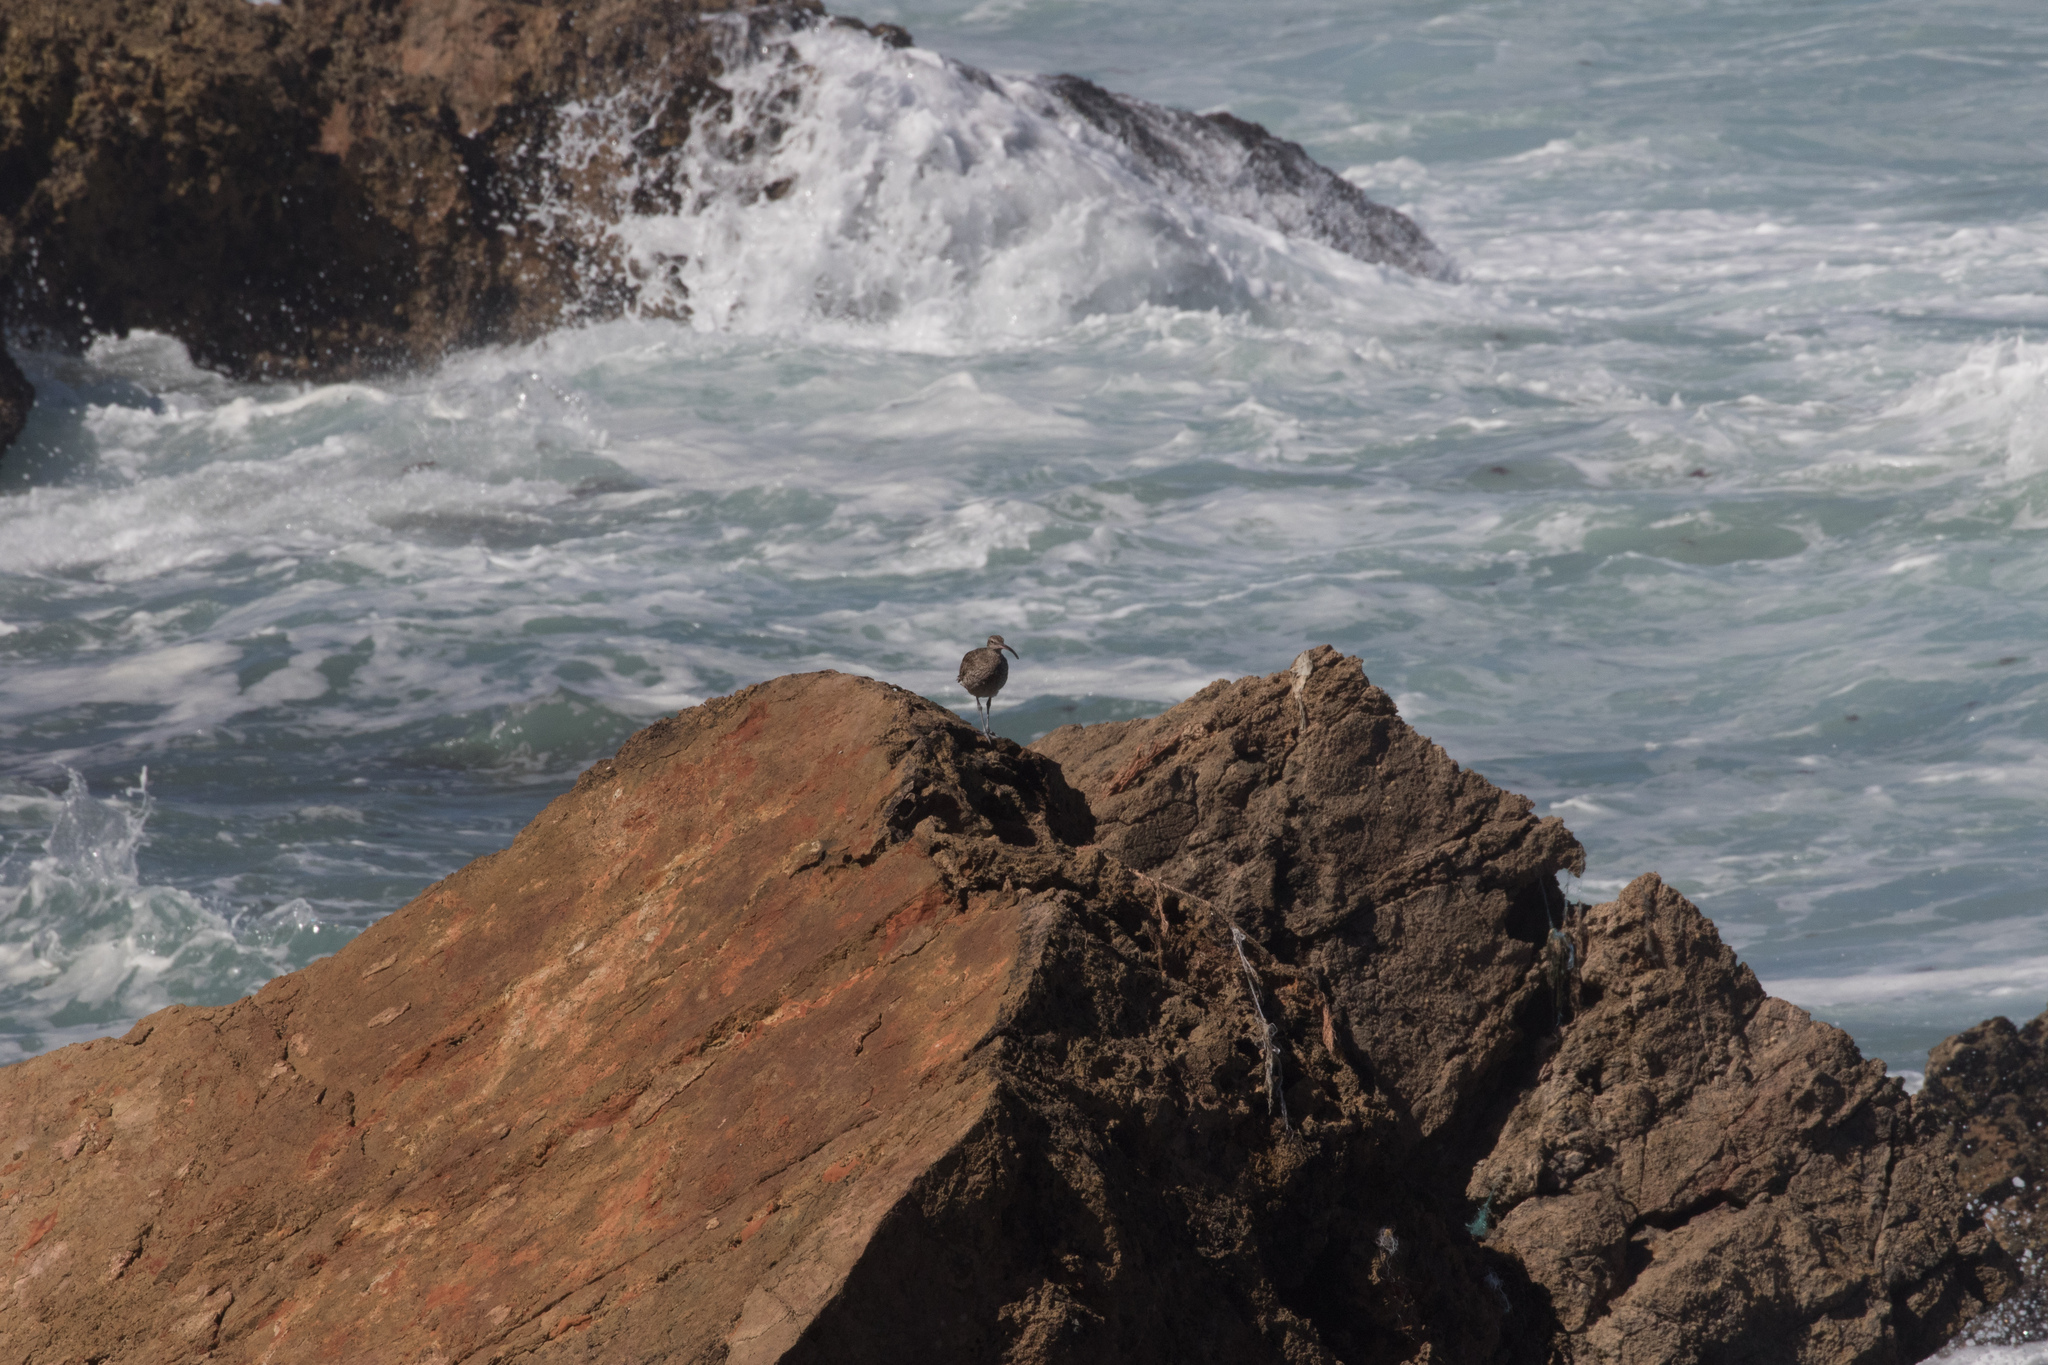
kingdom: Animalia
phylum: Chordata
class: Aves
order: Charadriiformes
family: Scolopacidae
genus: Numenius
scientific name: Numenius phaeopus
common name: Whimbrel
